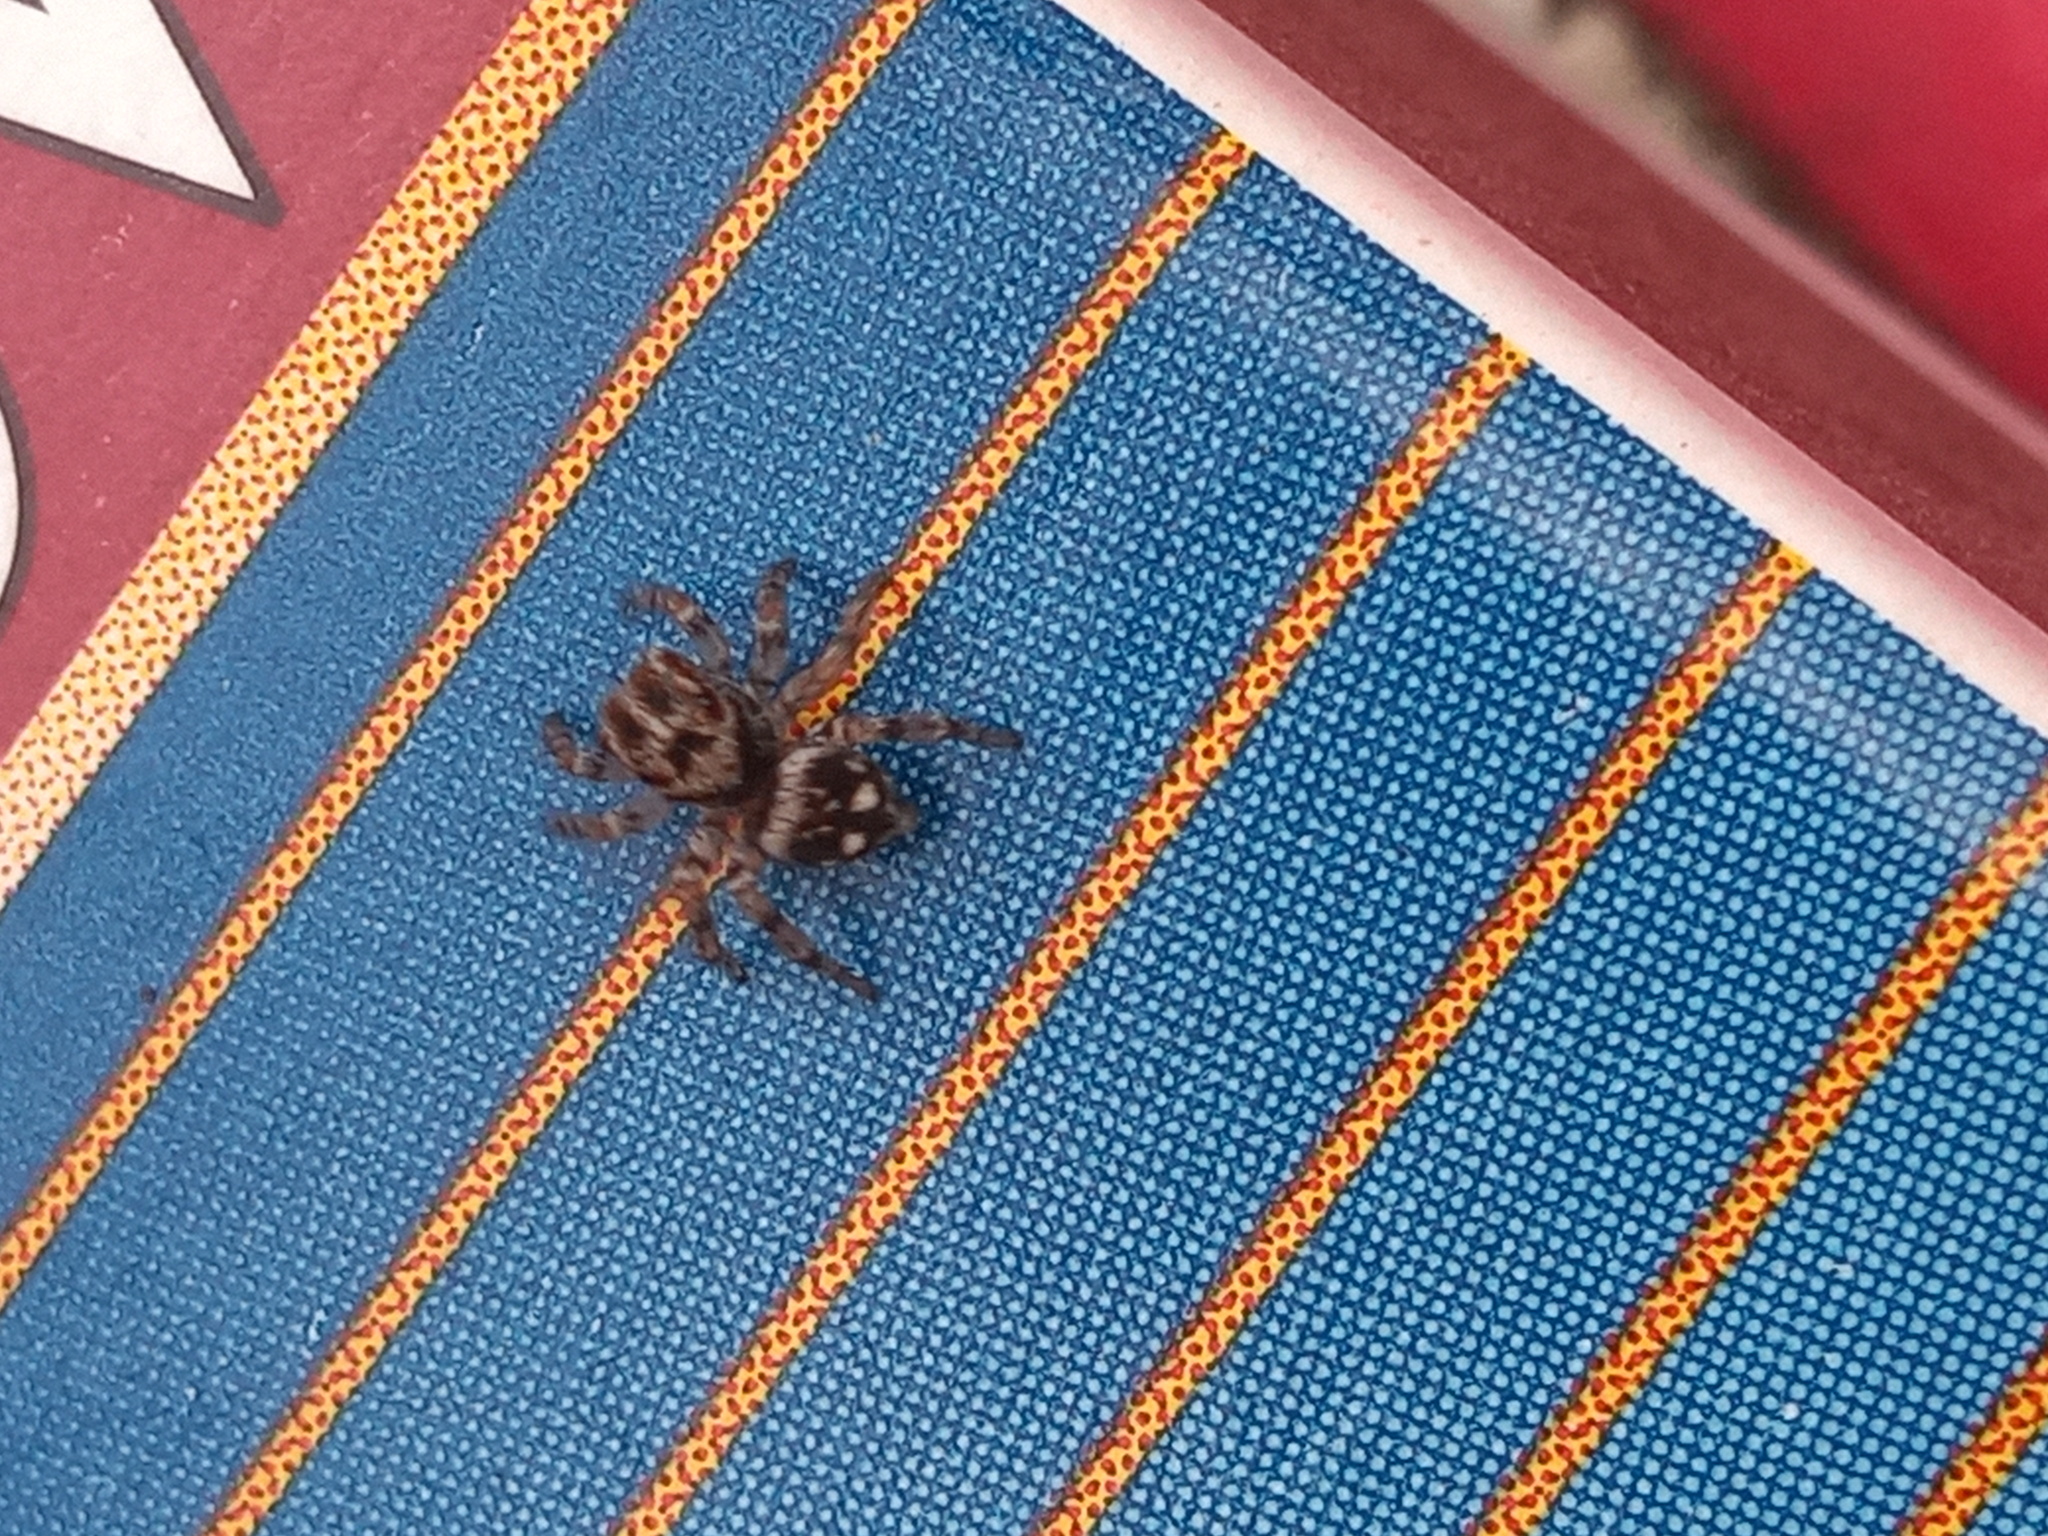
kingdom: Animalia
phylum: Arthropoda
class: Arachnida
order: Araneae
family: Salticidae
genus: Naphrys
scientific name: Naphrys acerba
